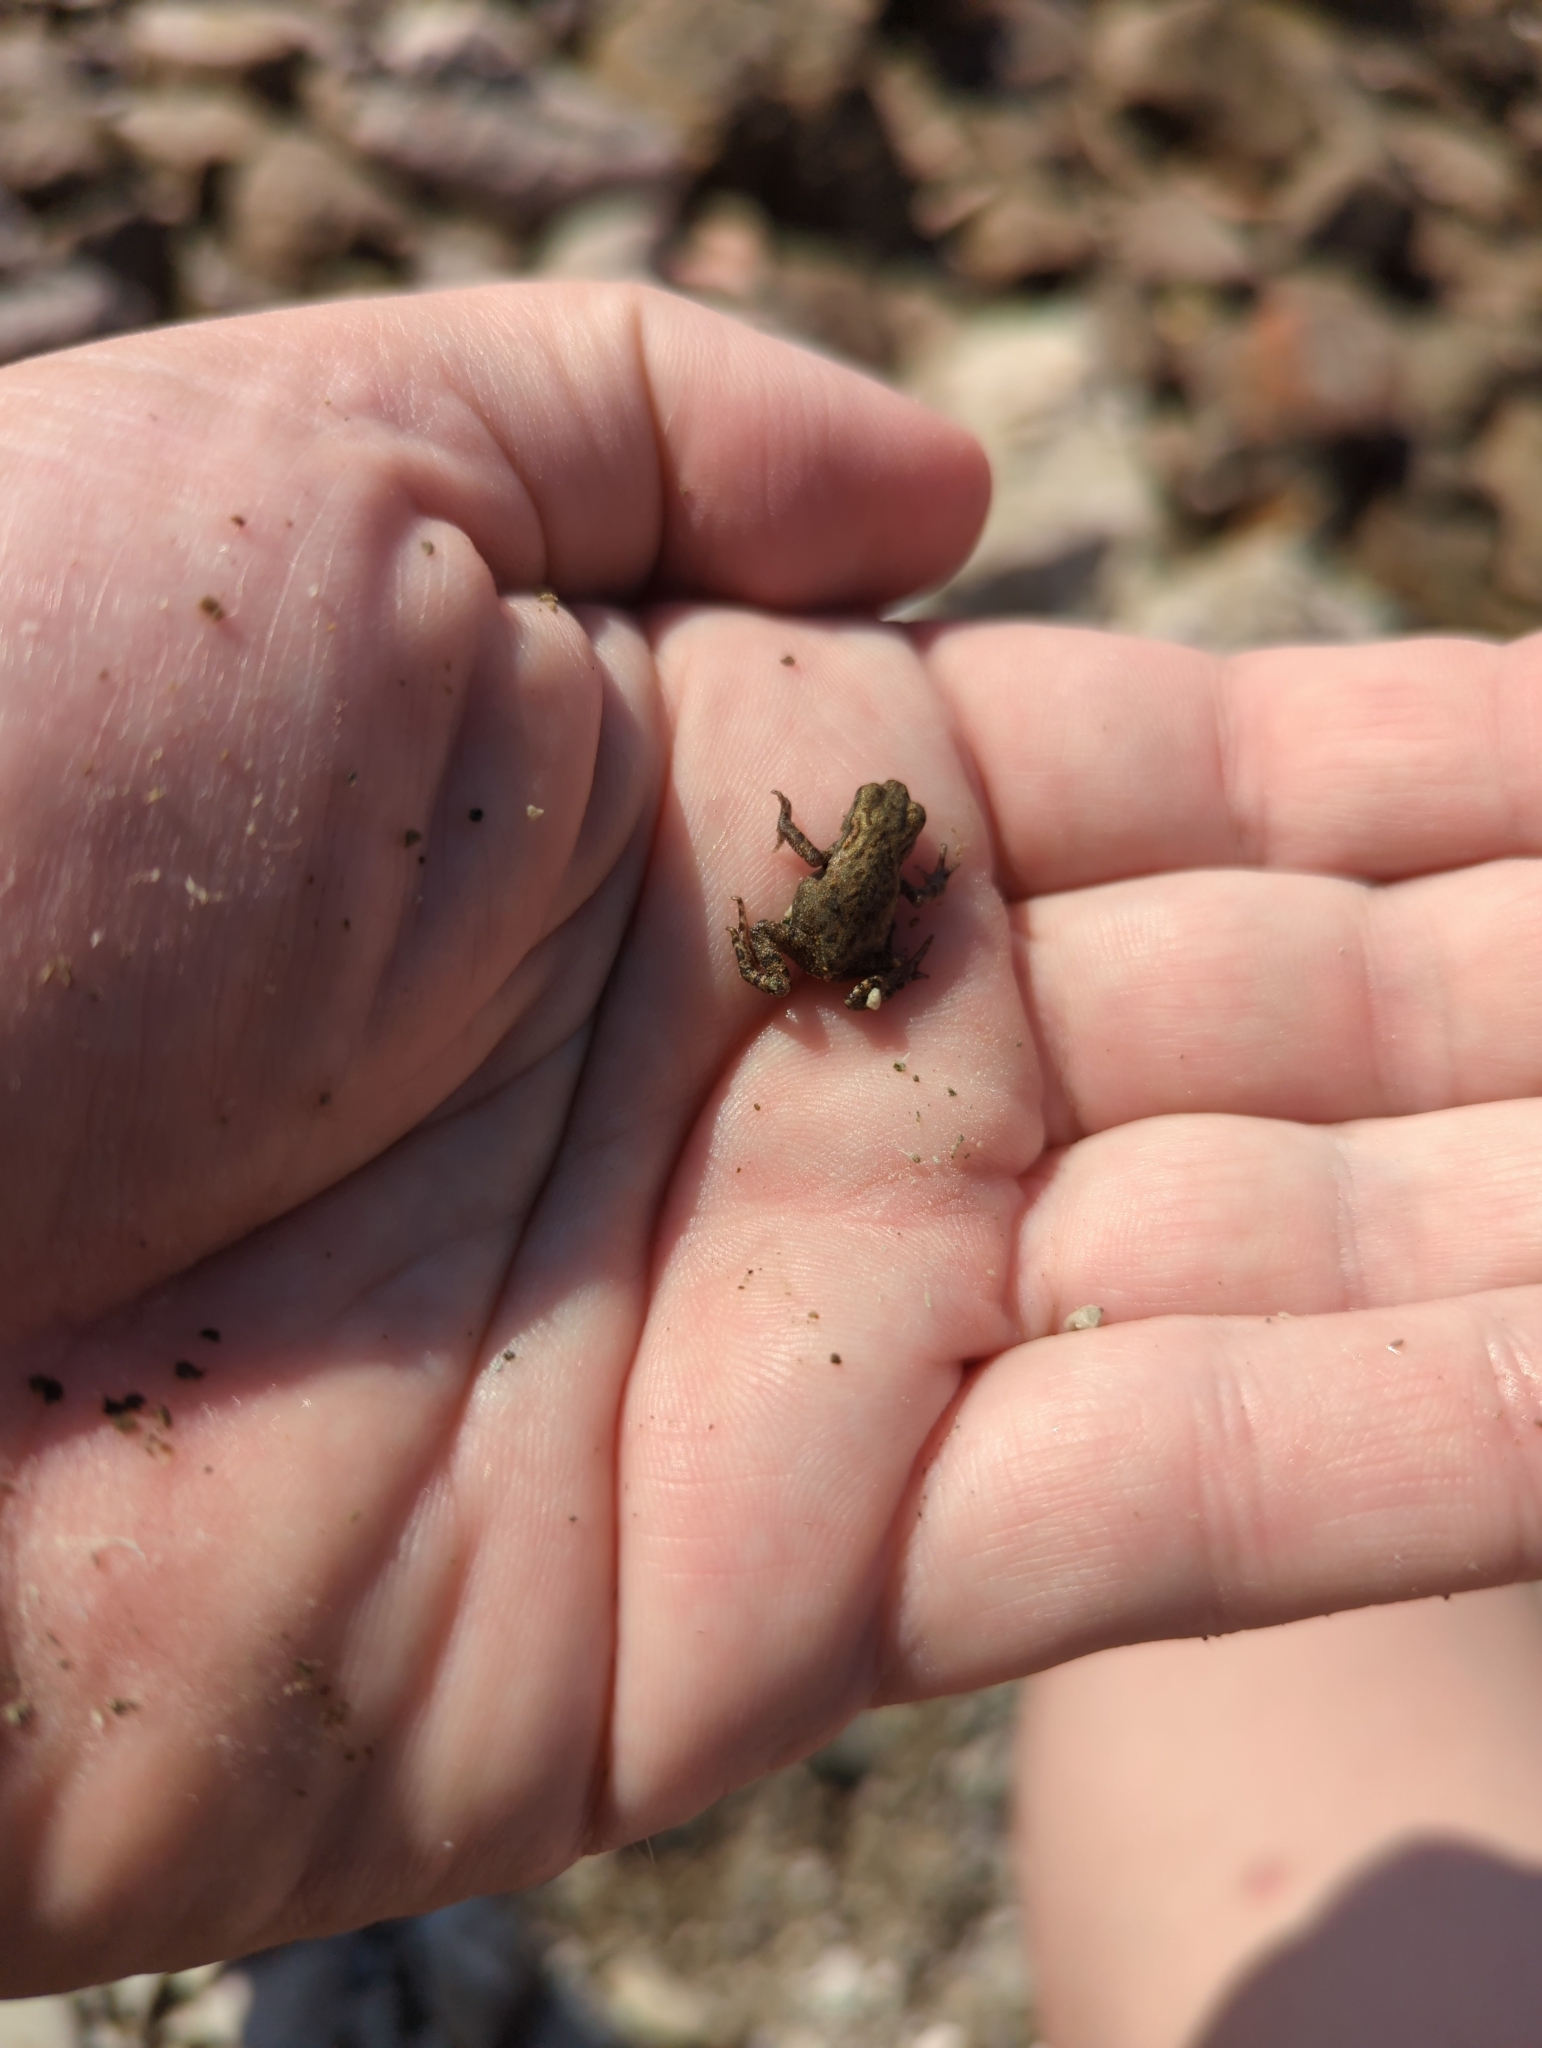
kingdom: Animalia
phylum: Chordata
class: Amphibia
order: Anura
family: Bufonidae
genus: Bufo
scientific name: Bufo bufo
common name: Common toad
